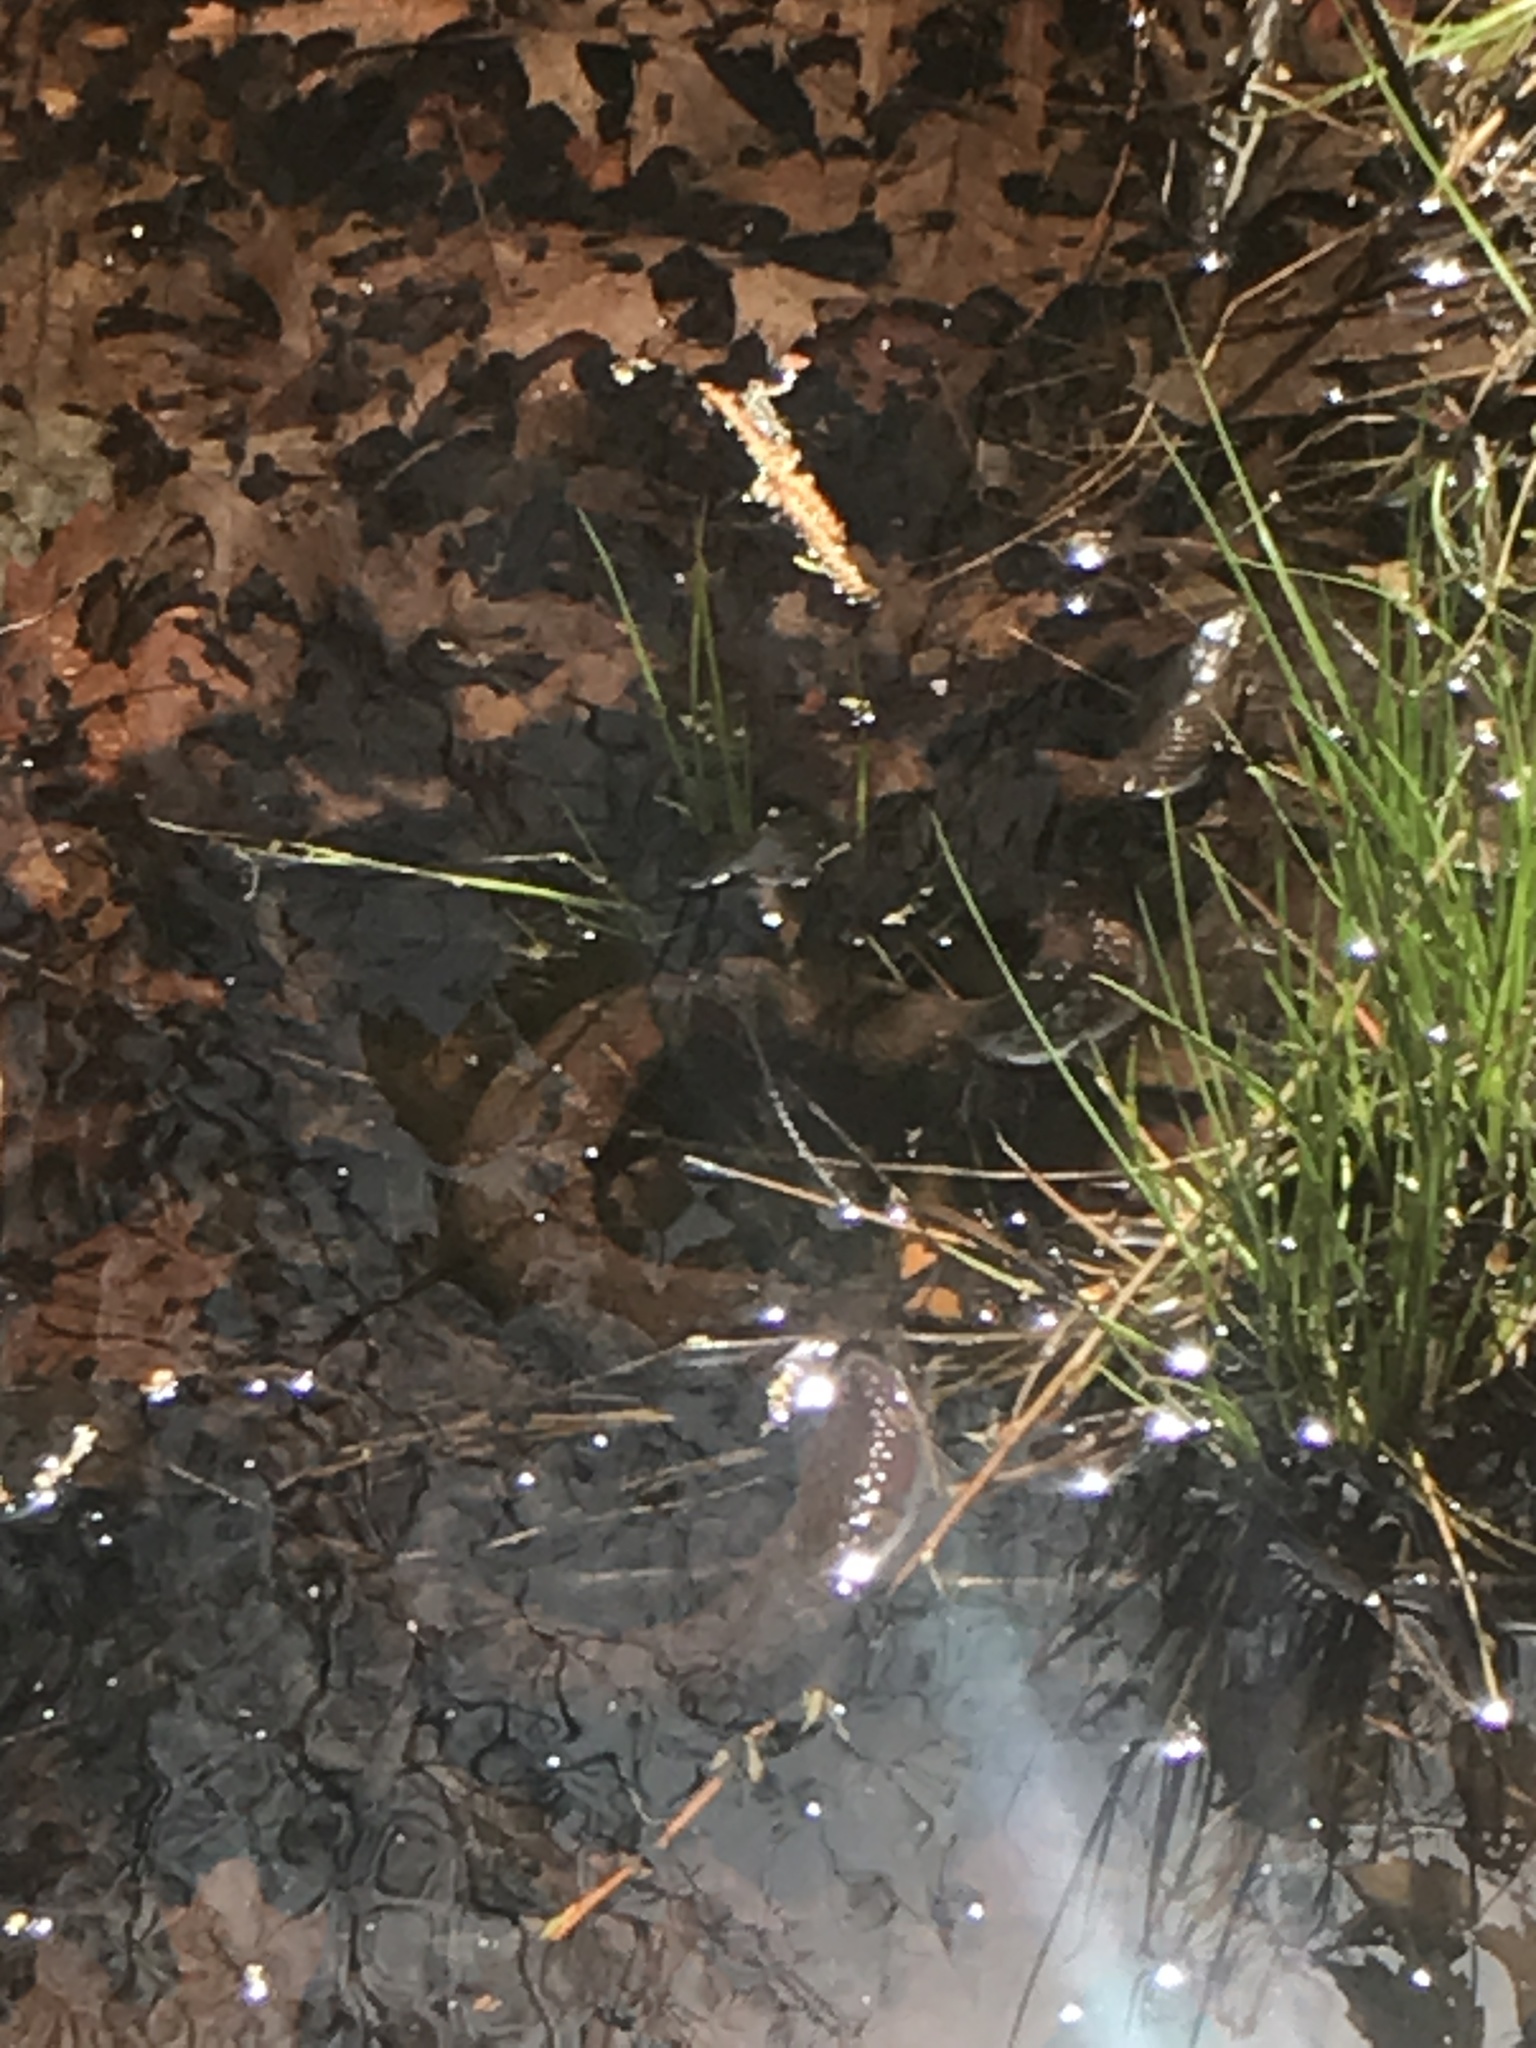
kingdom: Animalia
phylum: Chordata
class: Squamata
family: Colubridae
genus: Nerodia
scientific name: Nerodia sipedon
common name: Northern water snake
